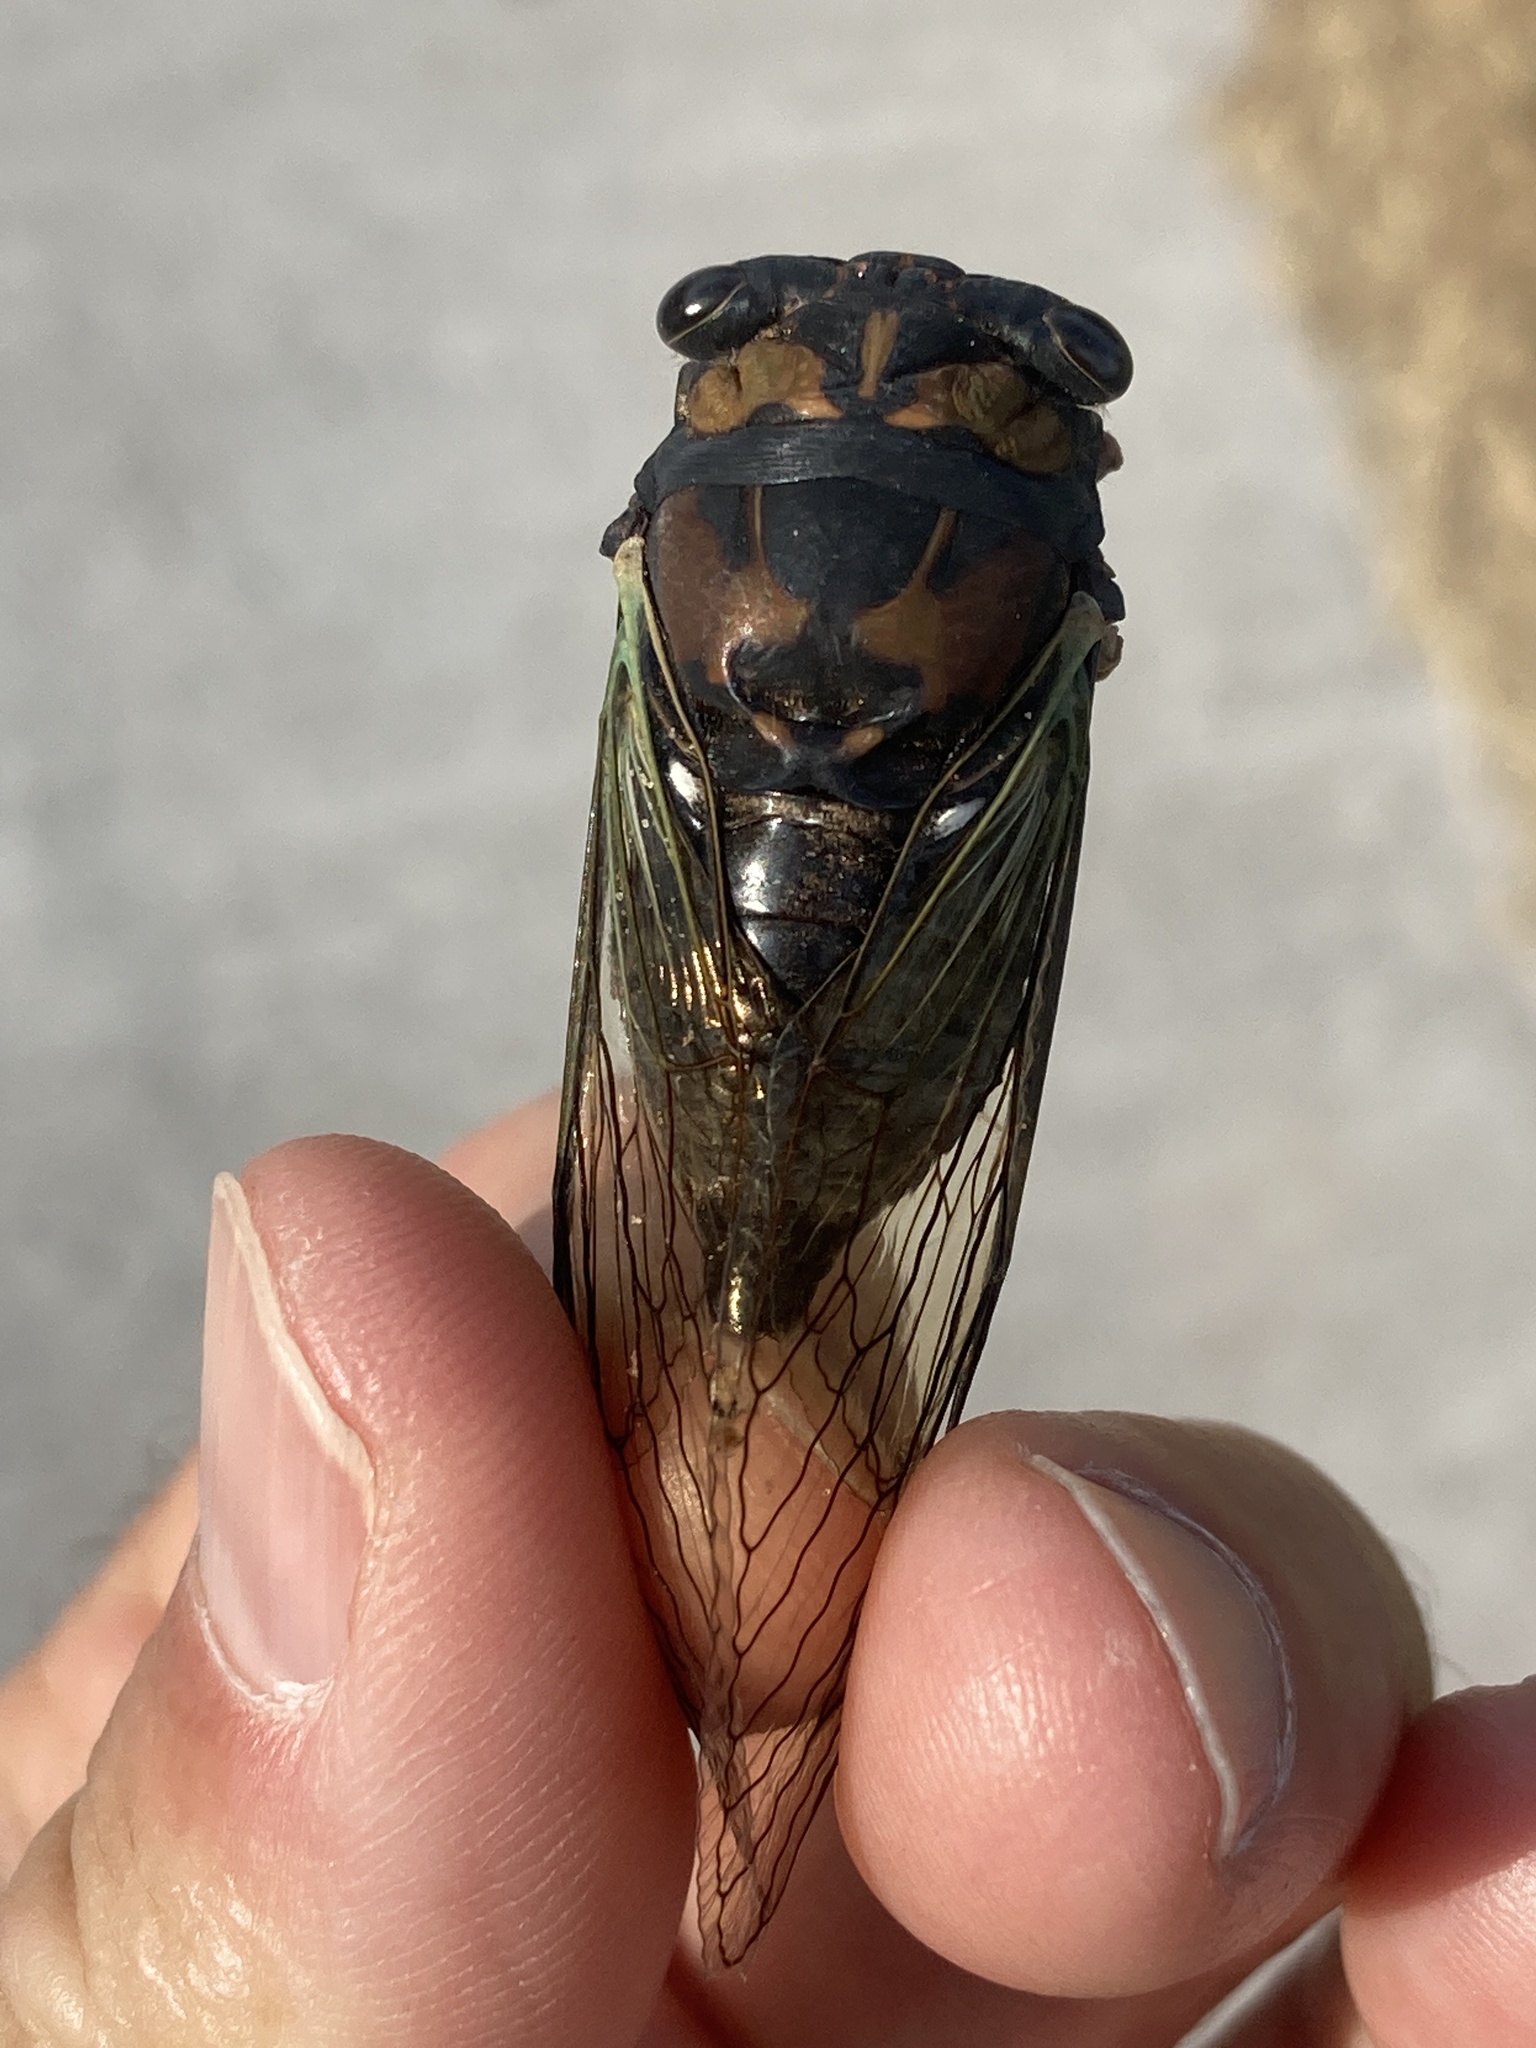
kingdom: Animalia
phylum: Arthropoda
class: Insecta
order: Hemiptera
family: Cicadidae
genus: Neotibicen
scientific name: Neotibicen lyricen
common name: Lyric cicada
